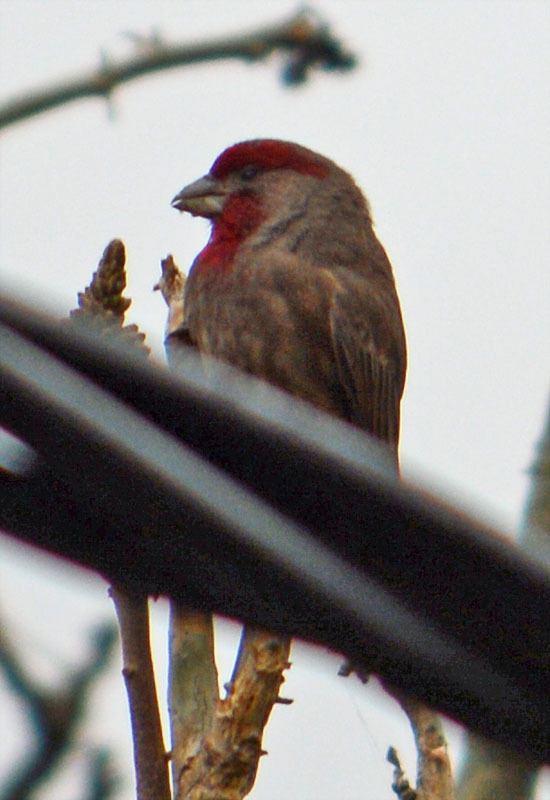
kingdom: Animalia
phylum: Chordata
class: Aves
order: Passeriformes
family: Fringillidae
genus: Haemorhous
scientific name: Haemorhous mexicanus
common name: House finch
